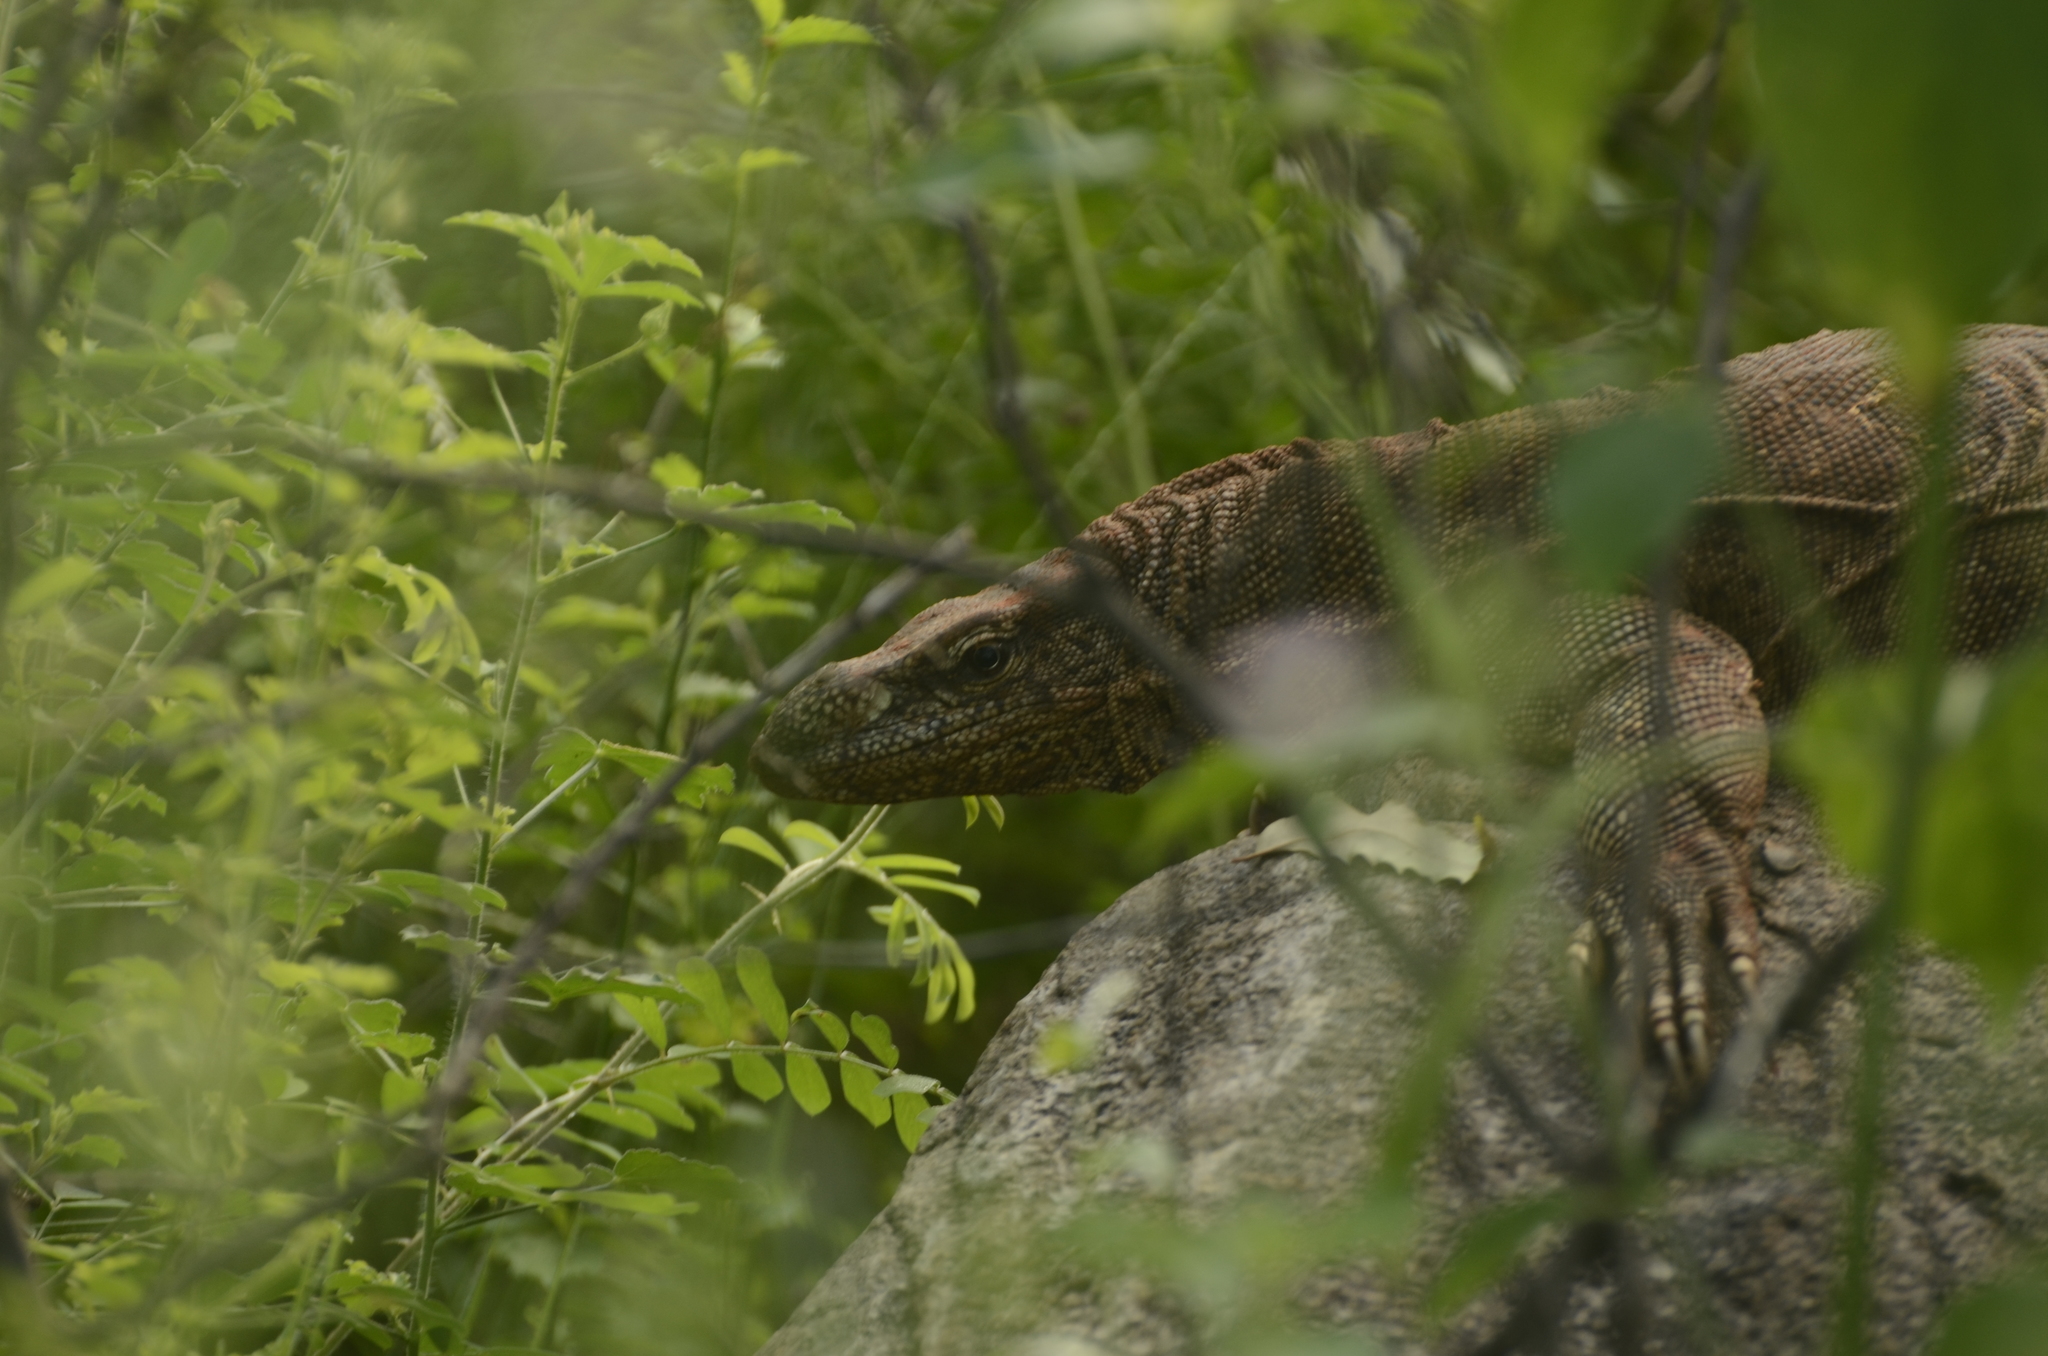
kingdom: Animalia
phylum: Chordata
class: Squamata
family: Varanidae
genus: Varanus
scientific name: Varanus bengalensis
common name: Bengal monitor
